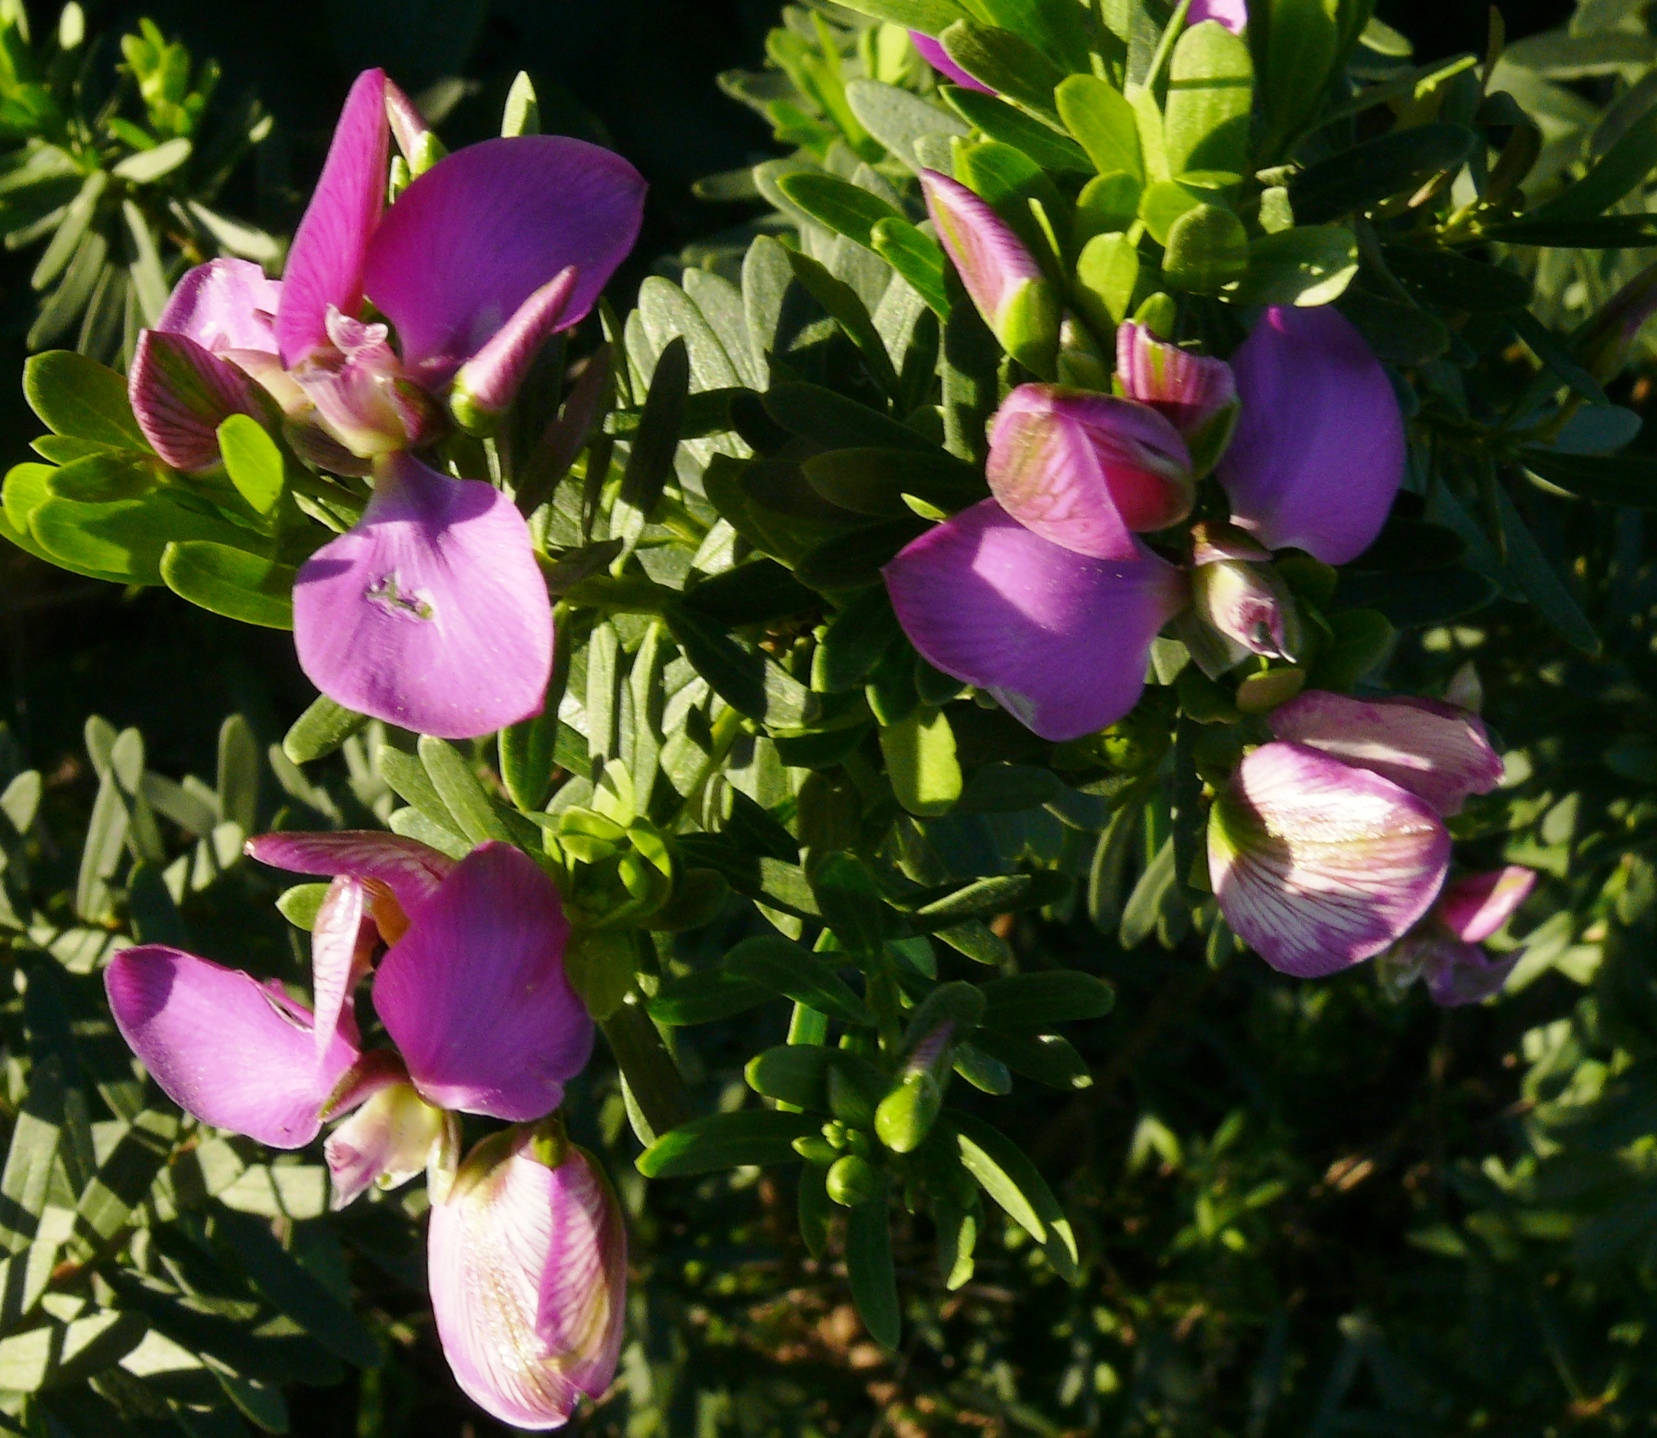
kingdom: Plantae
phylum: Tracheophyta
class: Magnoliopsida
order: Fabales
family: Polygalaceae
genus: Polygala
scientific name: Polygala myrtifolia
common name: Myrtle-leaf milkwort
